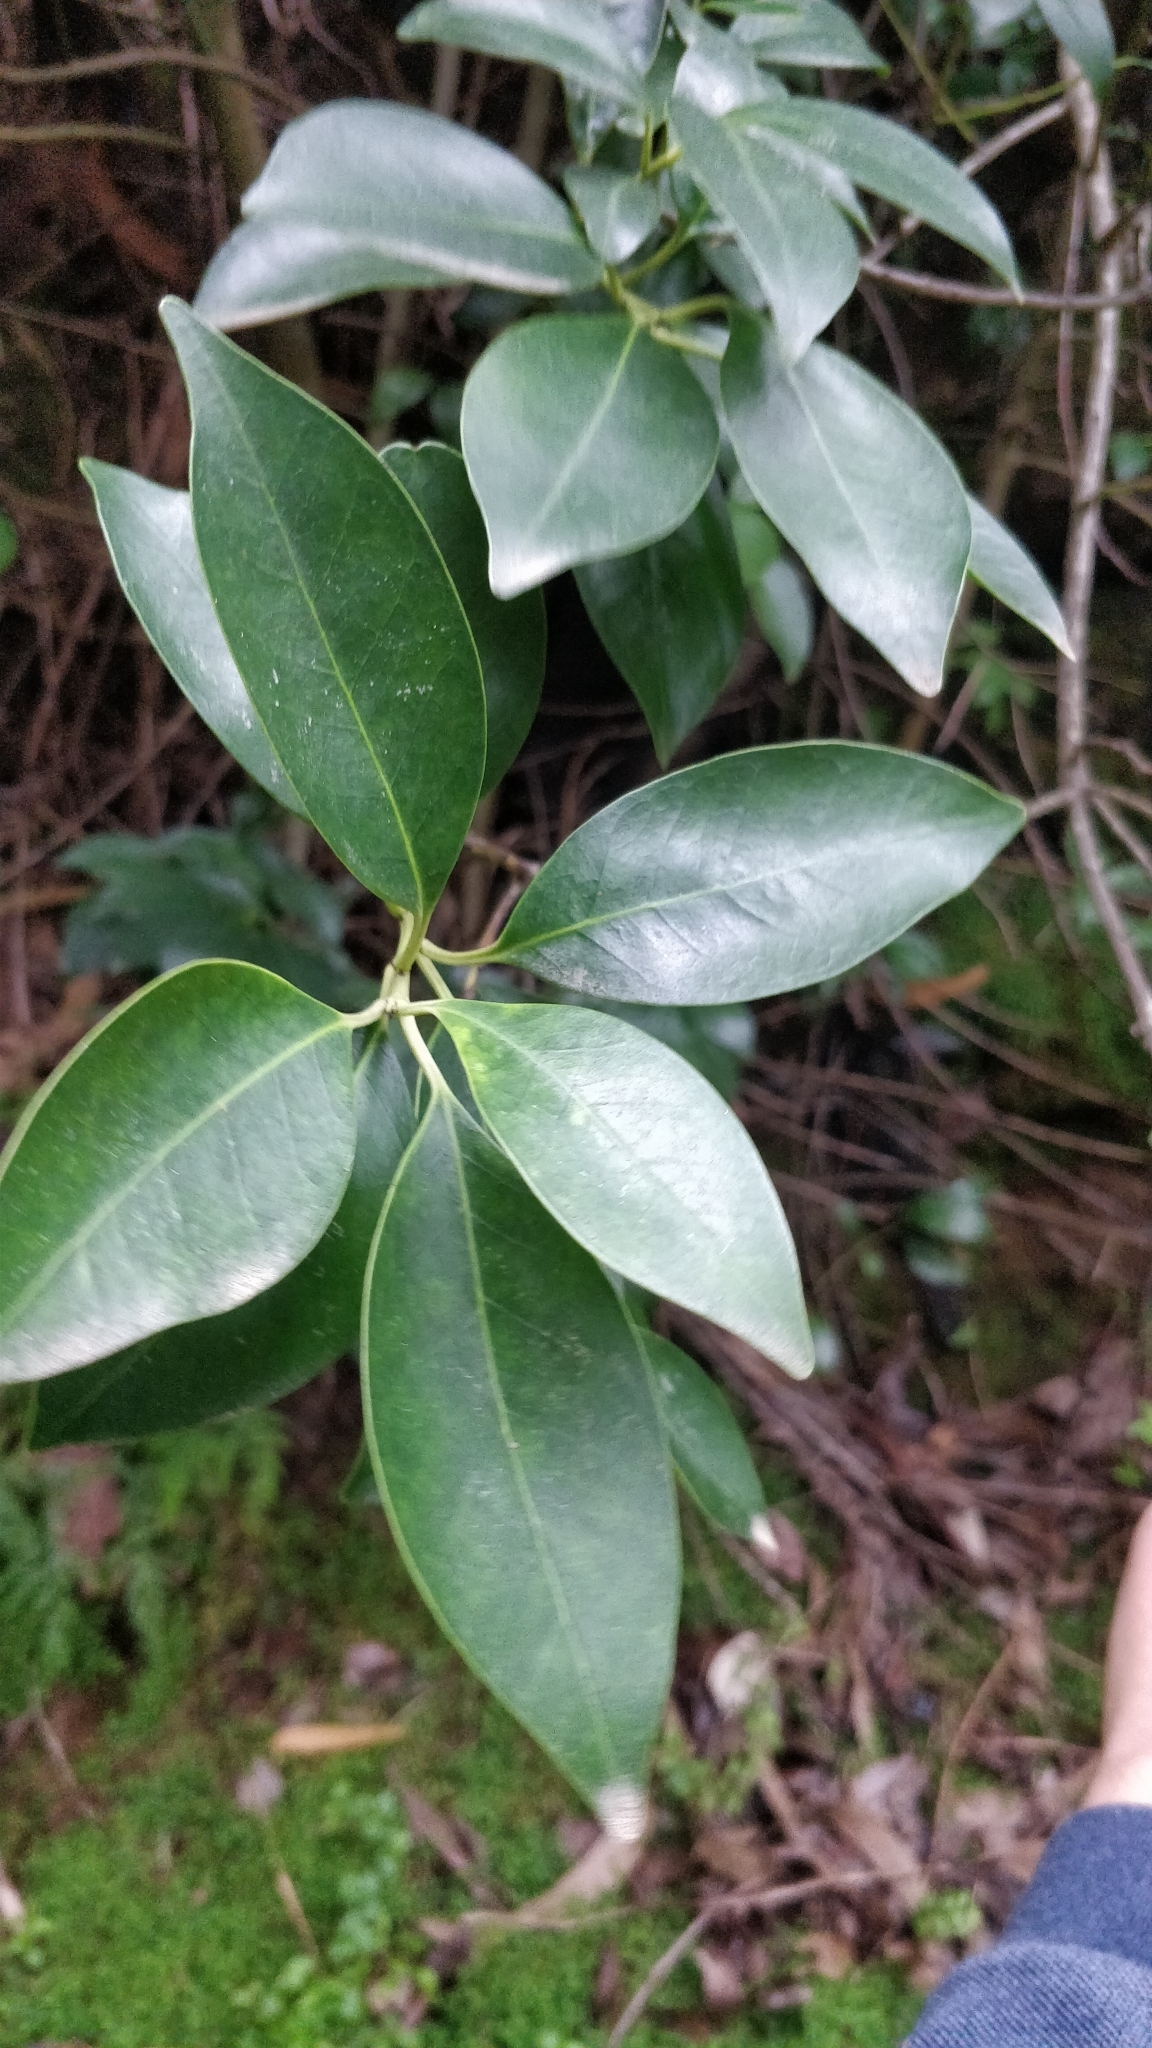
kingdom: Plantae
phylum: Tracheophyta
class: Magnoliopsida
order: Aquifoliales
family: Aquifoliaceae
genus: Ilex
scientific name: Ilex canariensis
